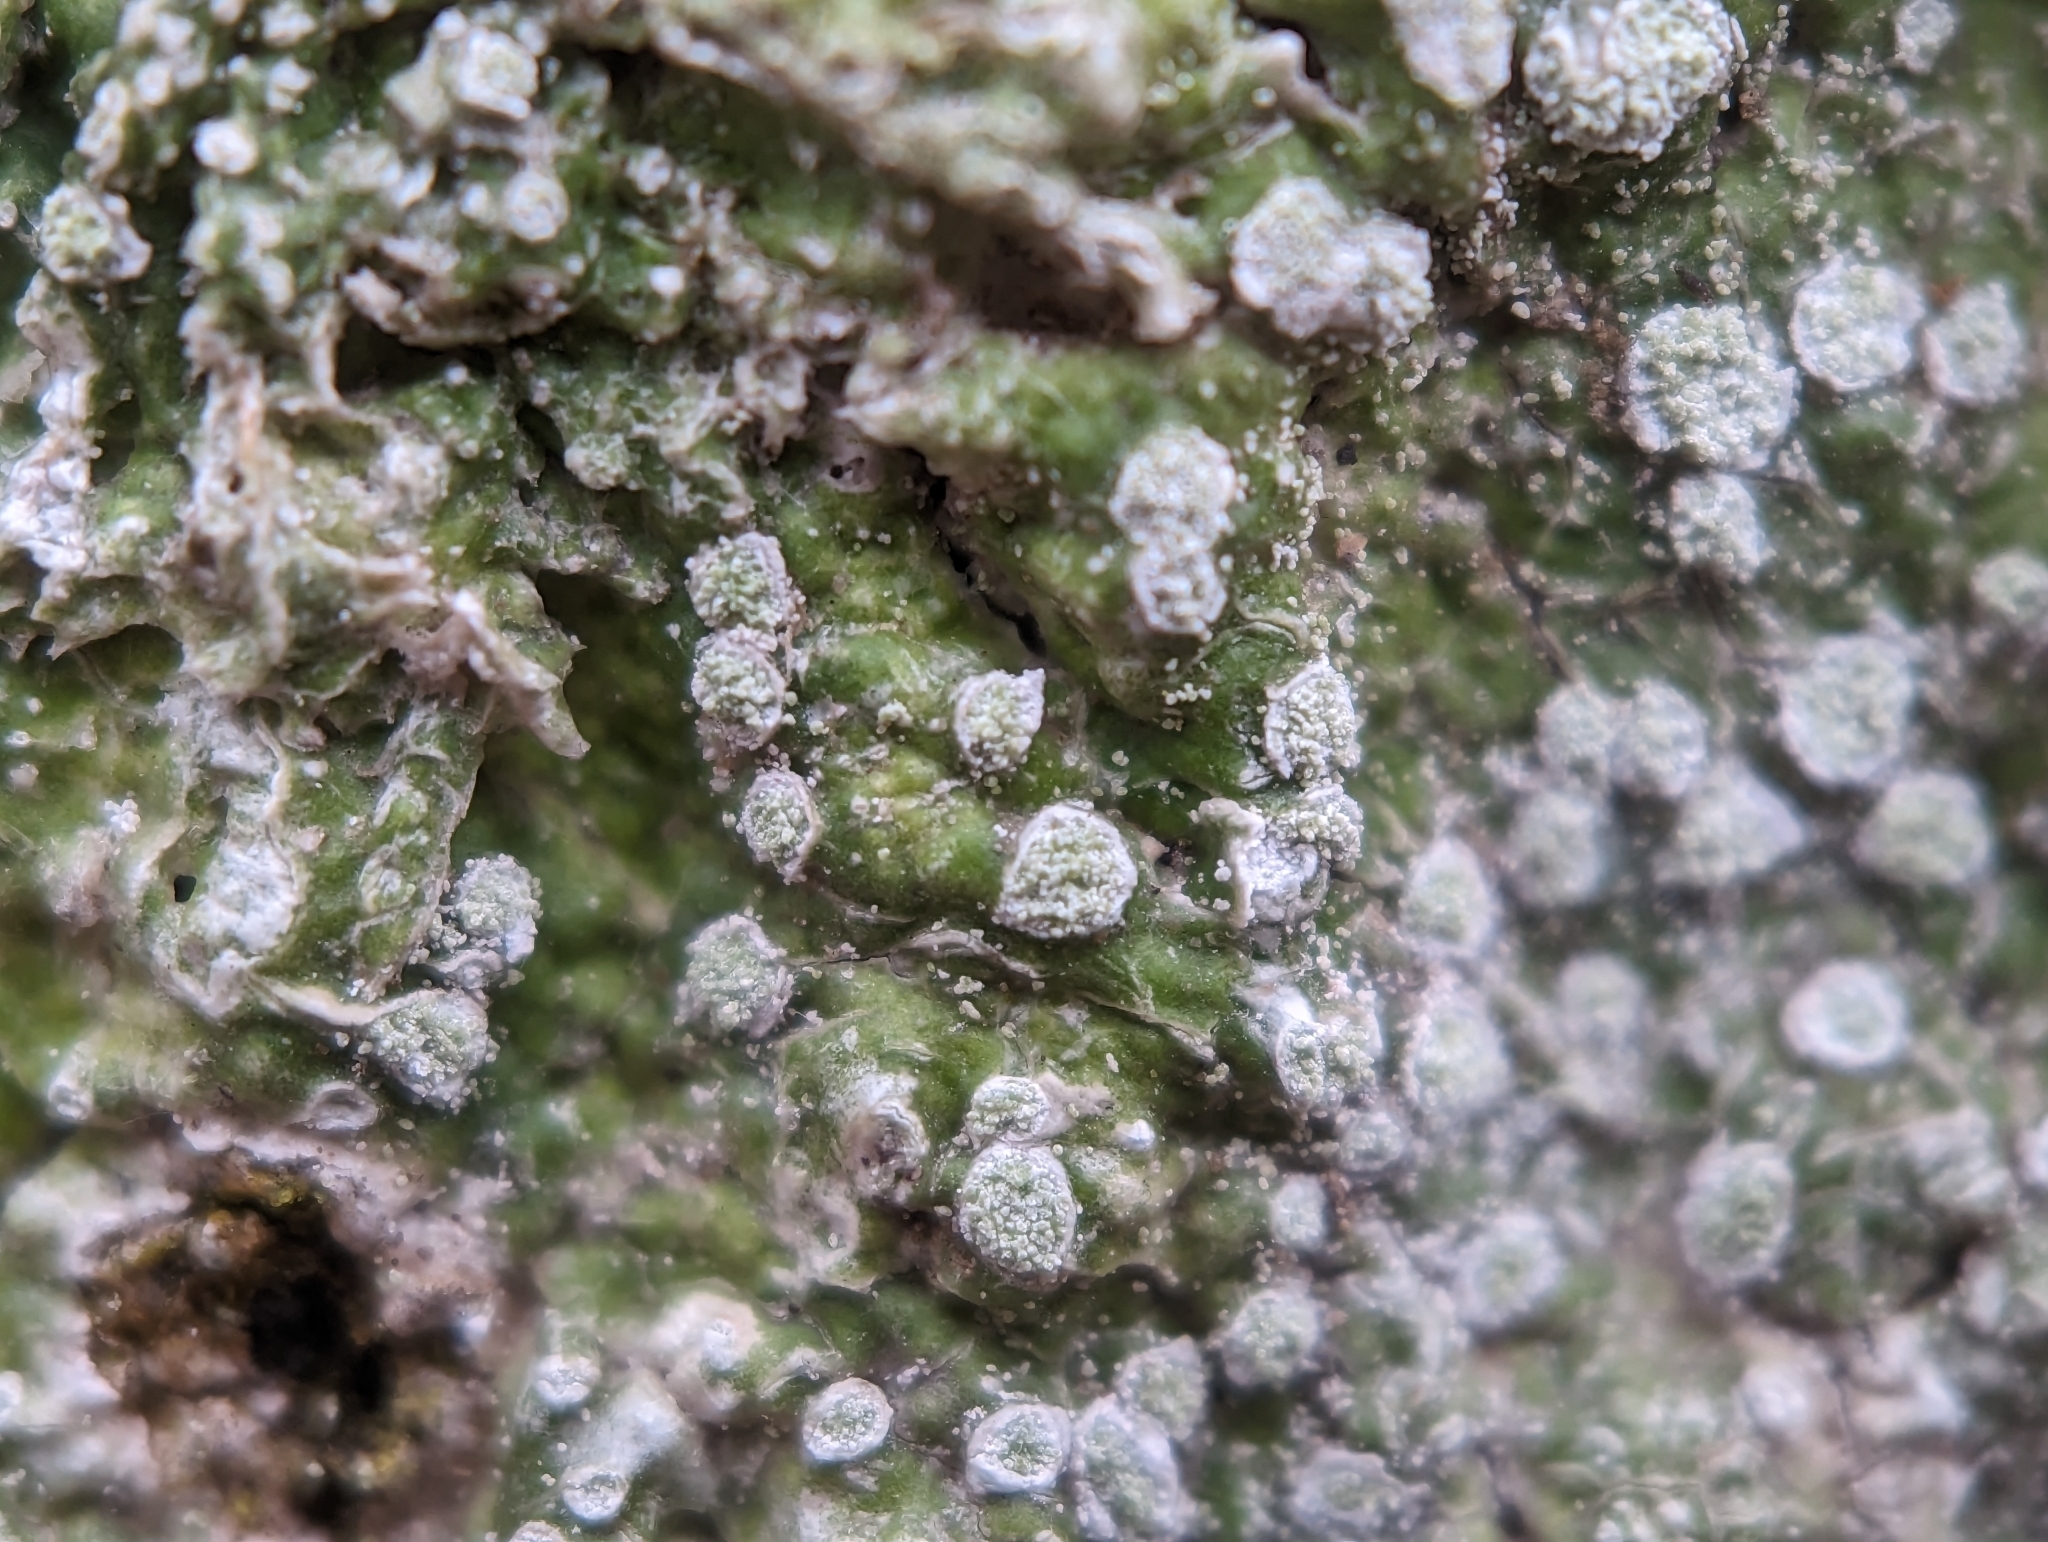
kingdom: Fungi
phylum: Ascomycota
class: Lecanoromycetes
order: Pertusariales
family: Pertusariaceae
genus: Lepra
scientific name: Lepra albescens
